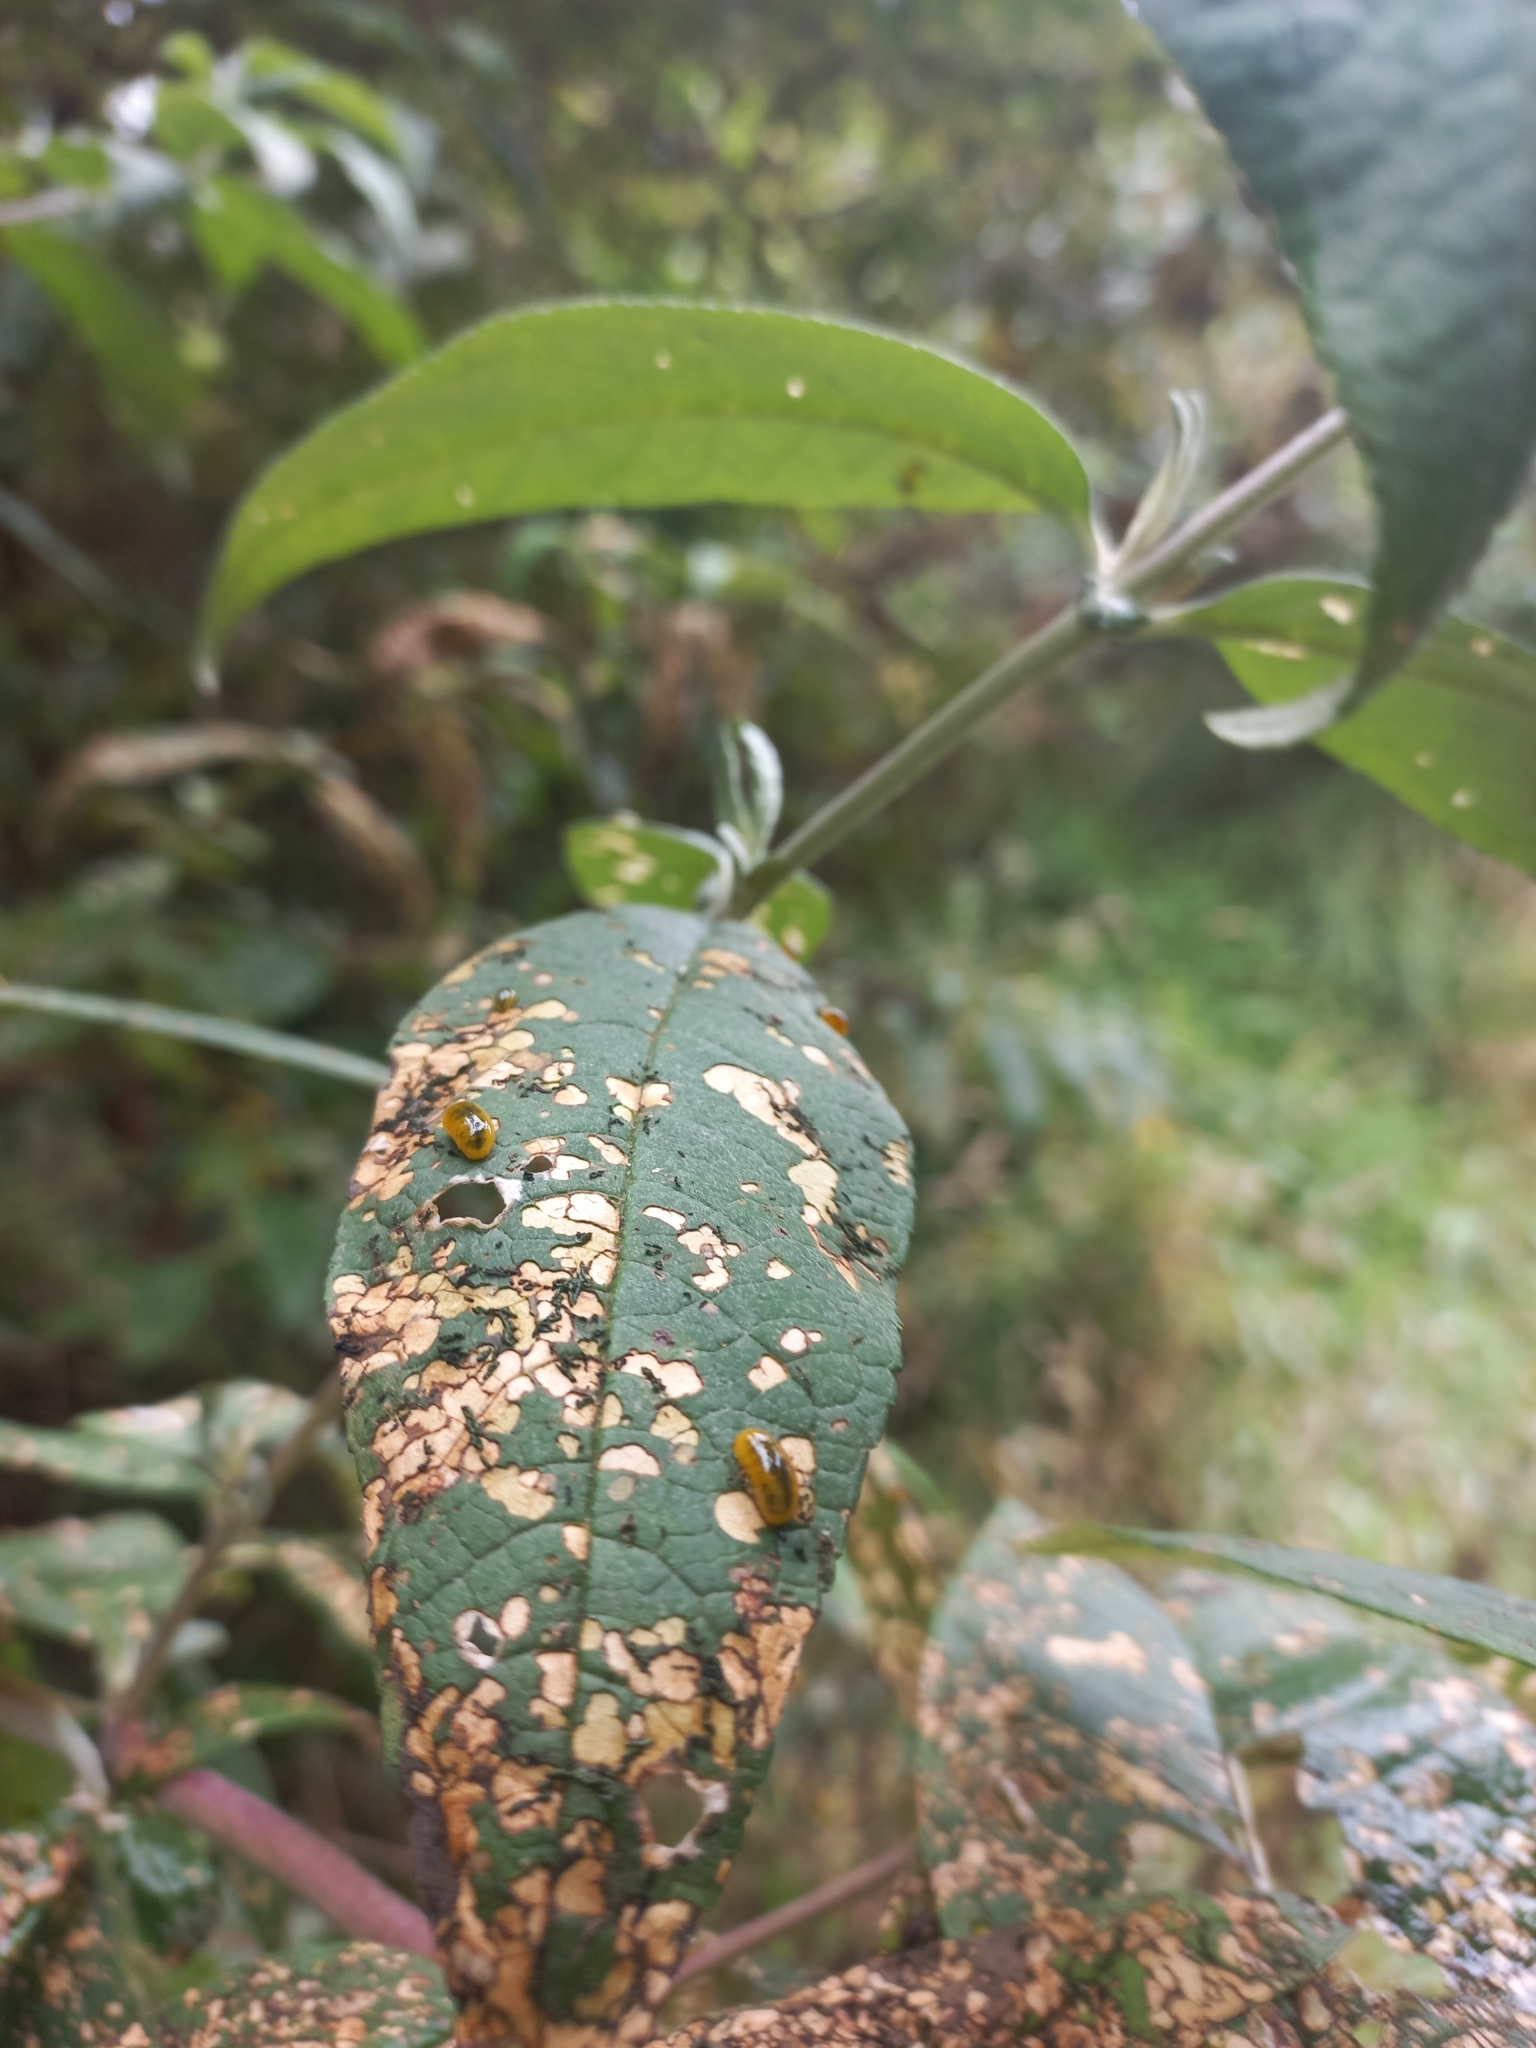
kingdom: Animalia
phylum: Arthropoda
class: Insecta
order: Coleoptera
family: Curculionidae
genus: Cleopus
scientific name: Cleopus japonicus
